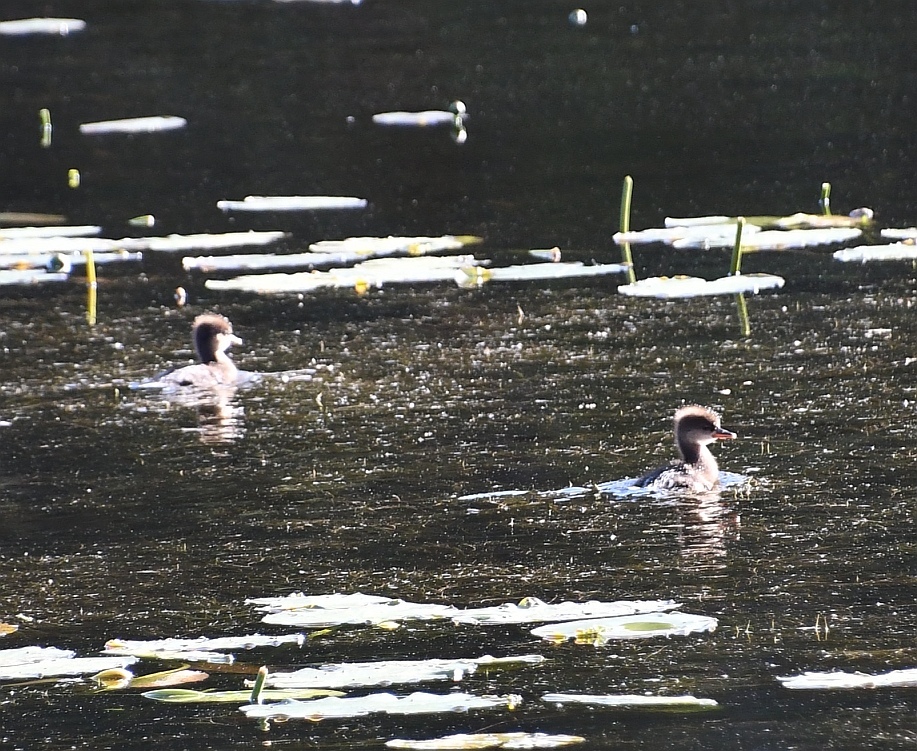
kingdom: Animalia
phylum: Chordata
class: Aves
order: Anseriformes
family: Anatidae
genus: Lophodytes
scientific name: Lophodytes cucullatus
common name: Hooded merganser
